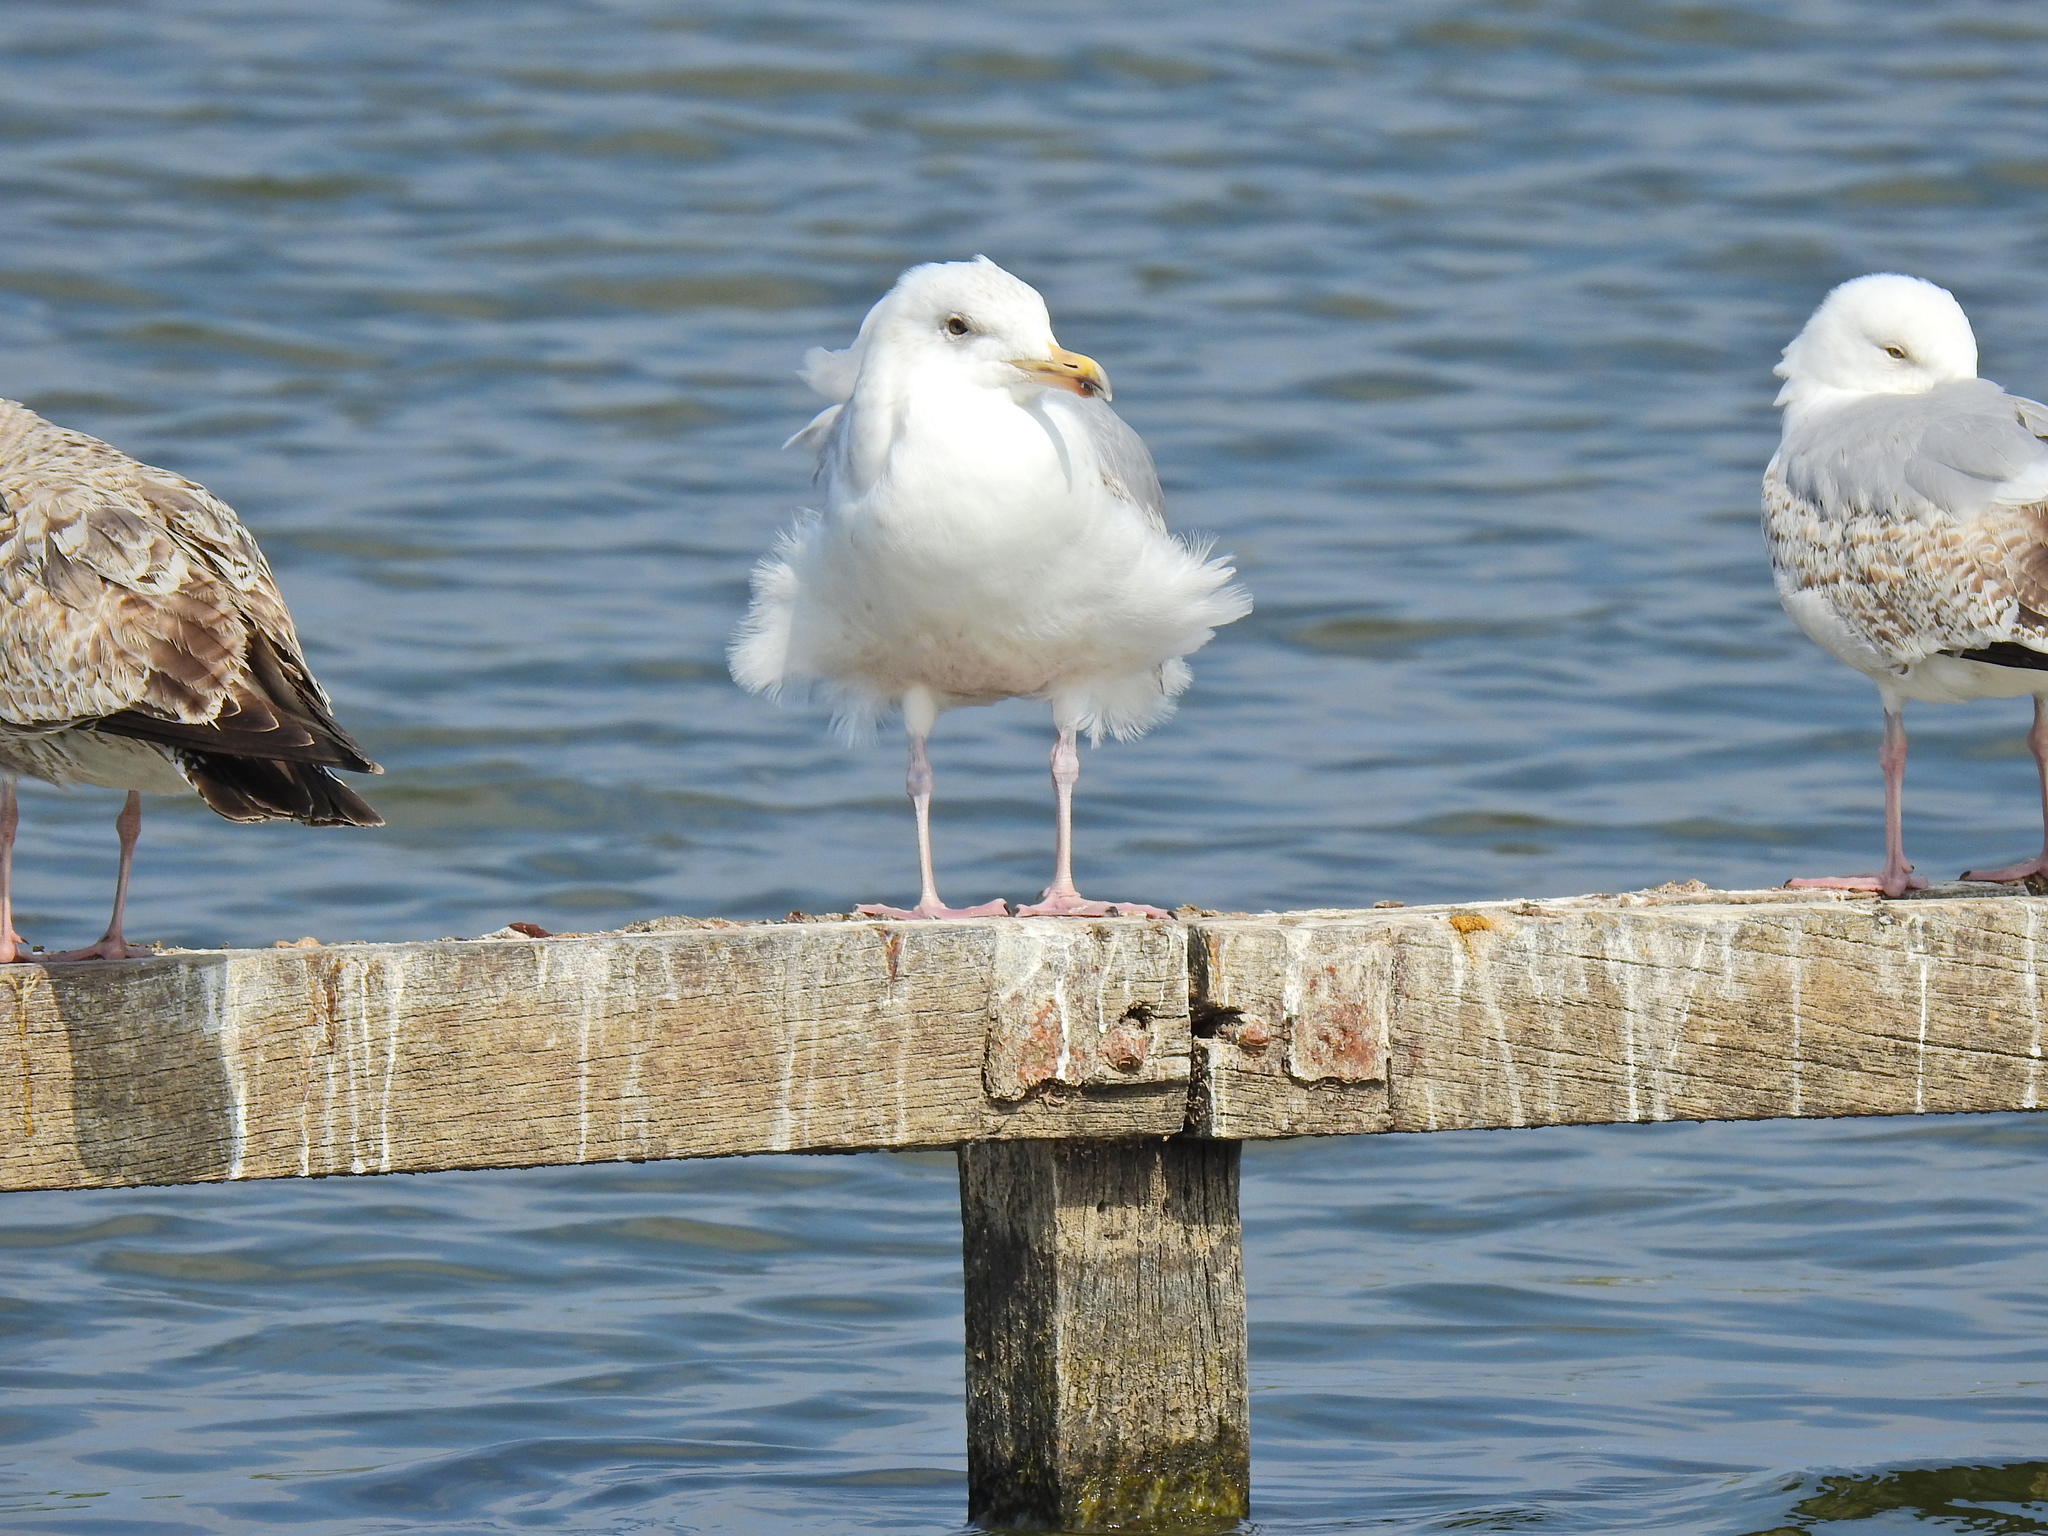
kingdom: Animalia
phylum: Chordata
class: Aves
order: Charadriiformes
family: Laridae
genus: Larus
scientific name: Larus argentatus
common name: Herring gull
